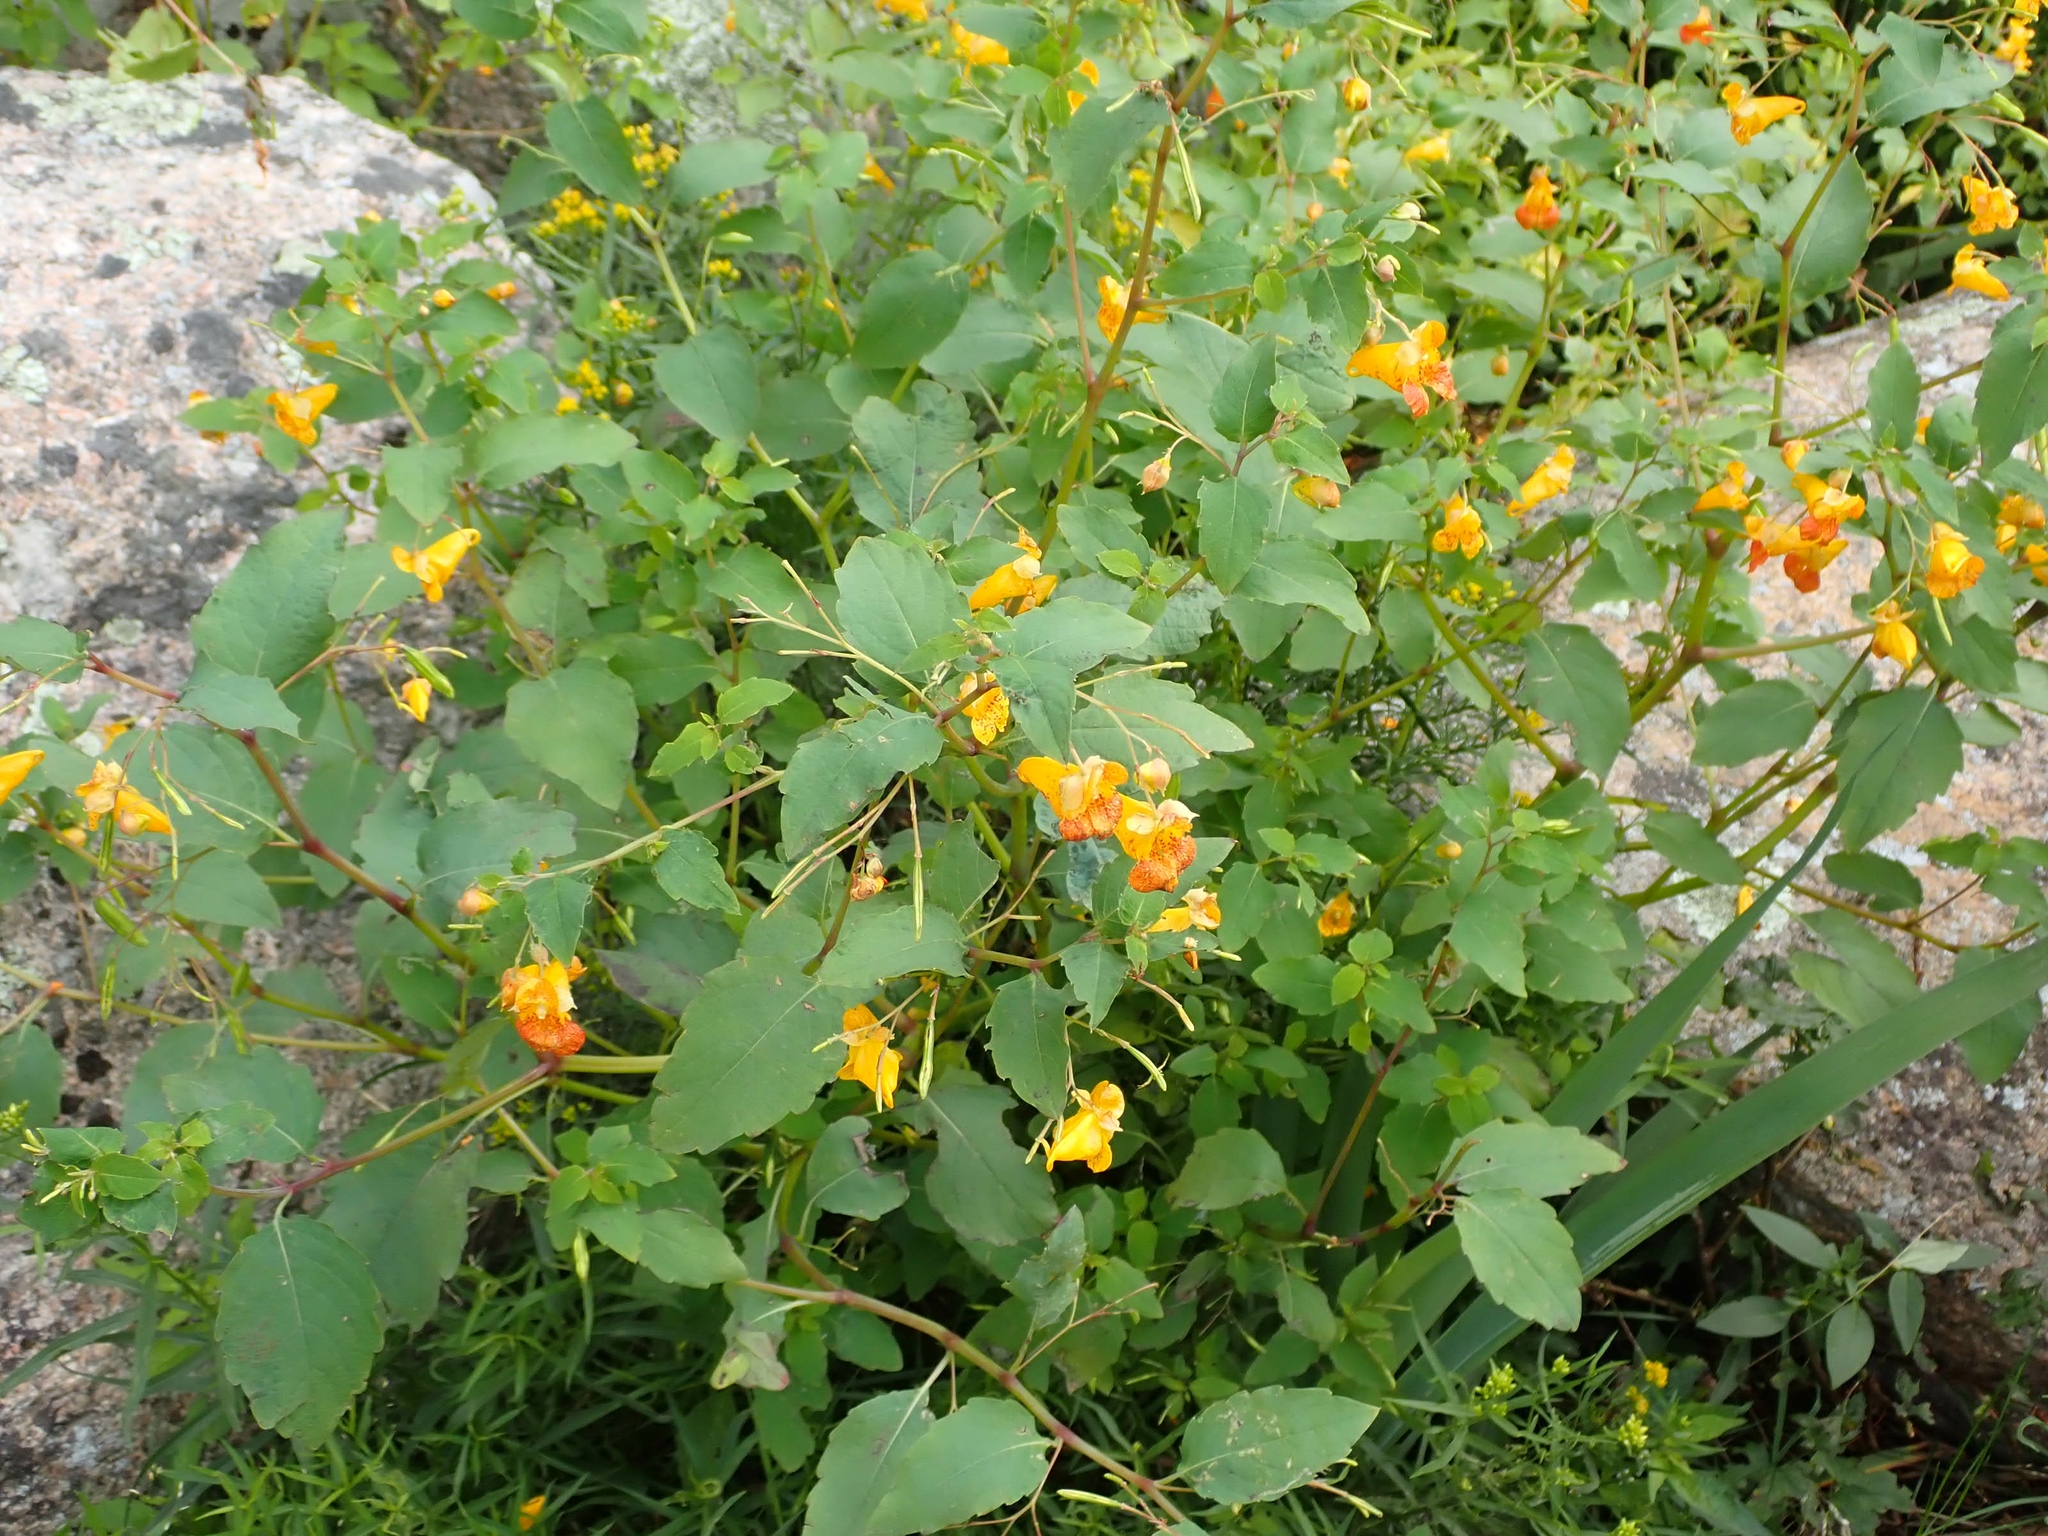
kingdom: Plantae
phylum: Tracheophyta
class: Magnoliopsida
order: Ericales
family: Balsaminaceae
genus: Impatiens
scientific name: Impatiens capensis
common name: Orange balsam
